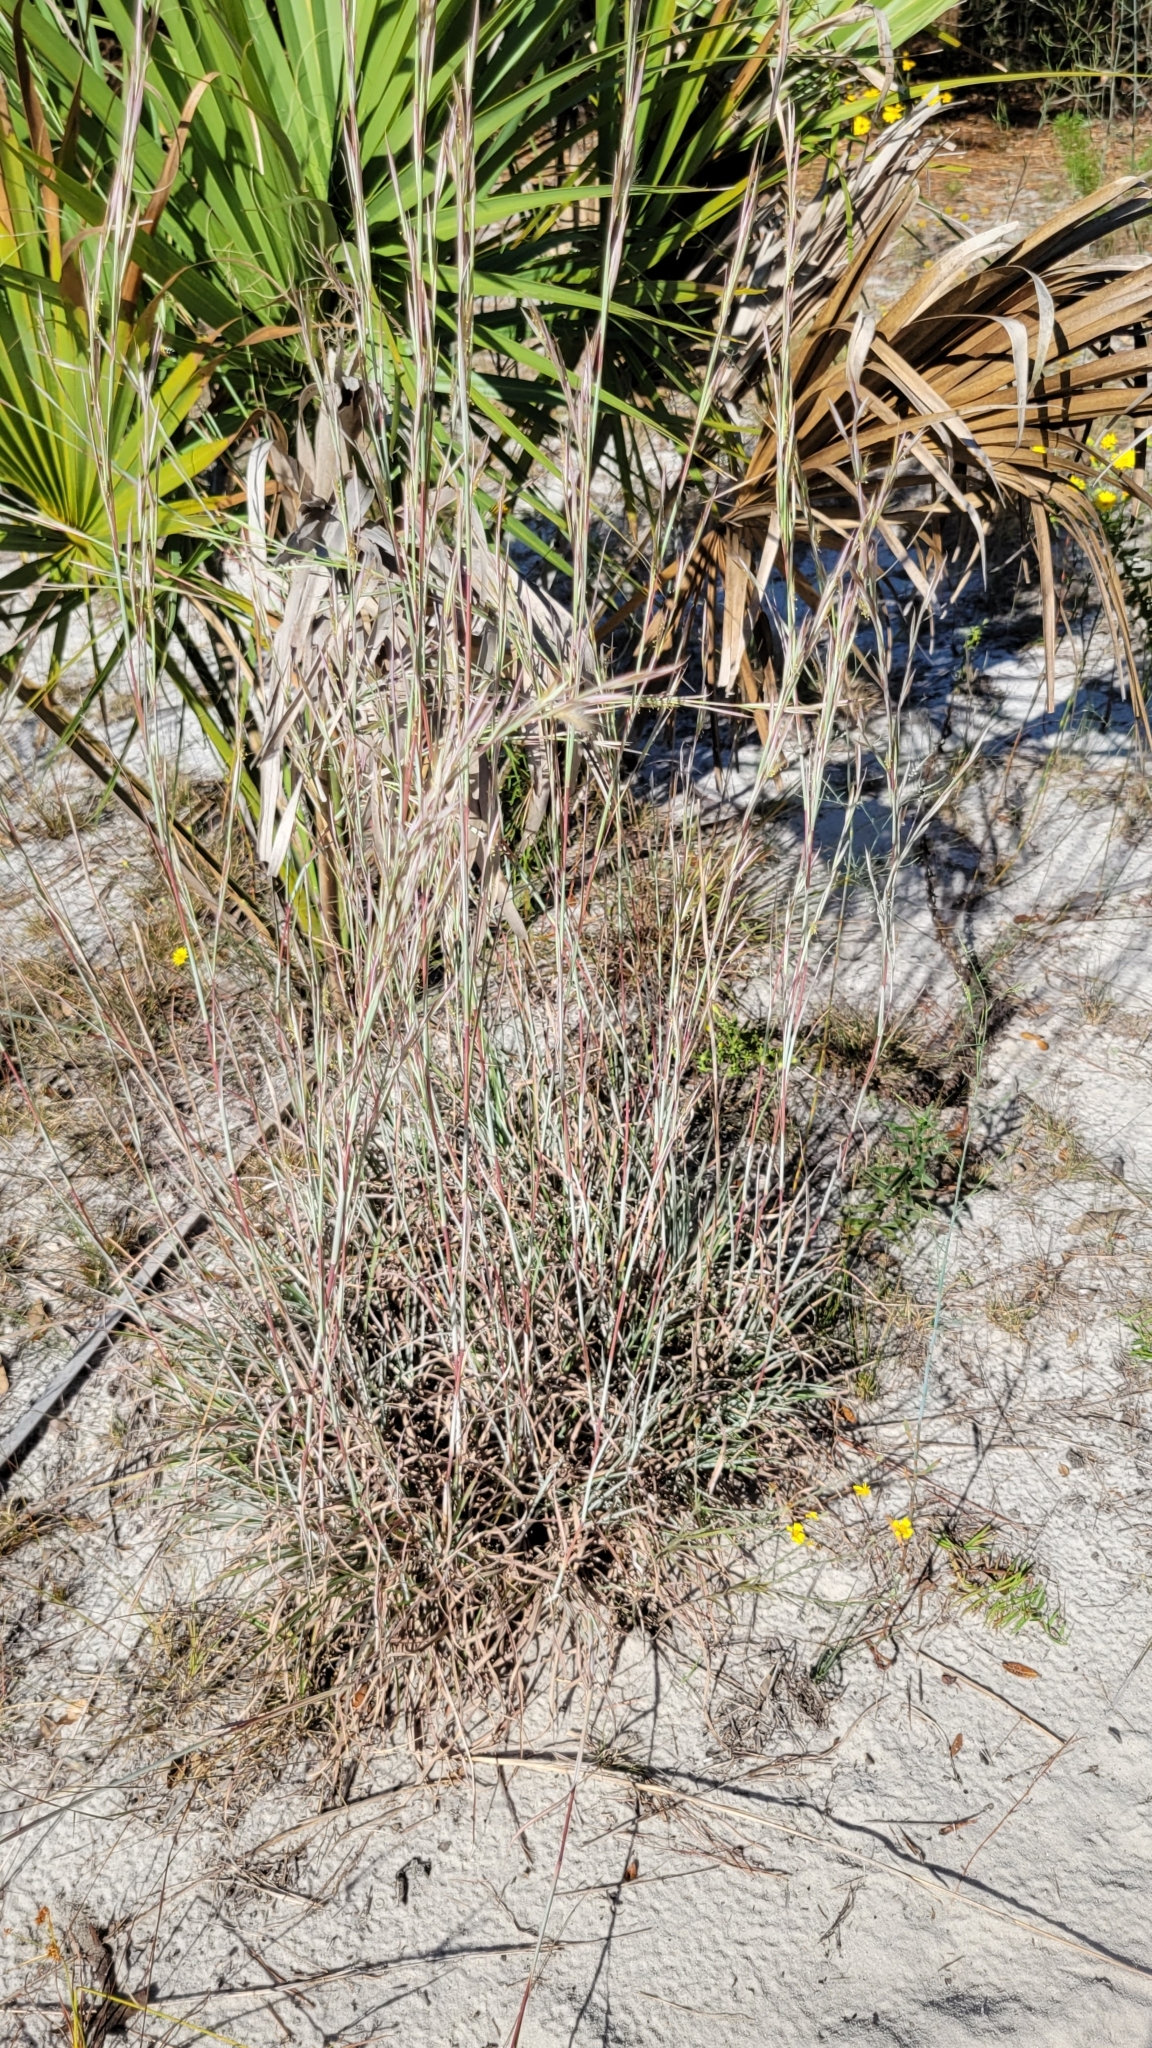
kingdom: Plantae
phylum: Tracheophyta
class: Liliopsida
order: Poales
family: Poaceae
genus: Andropogon
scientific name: Andropogon capillipes
